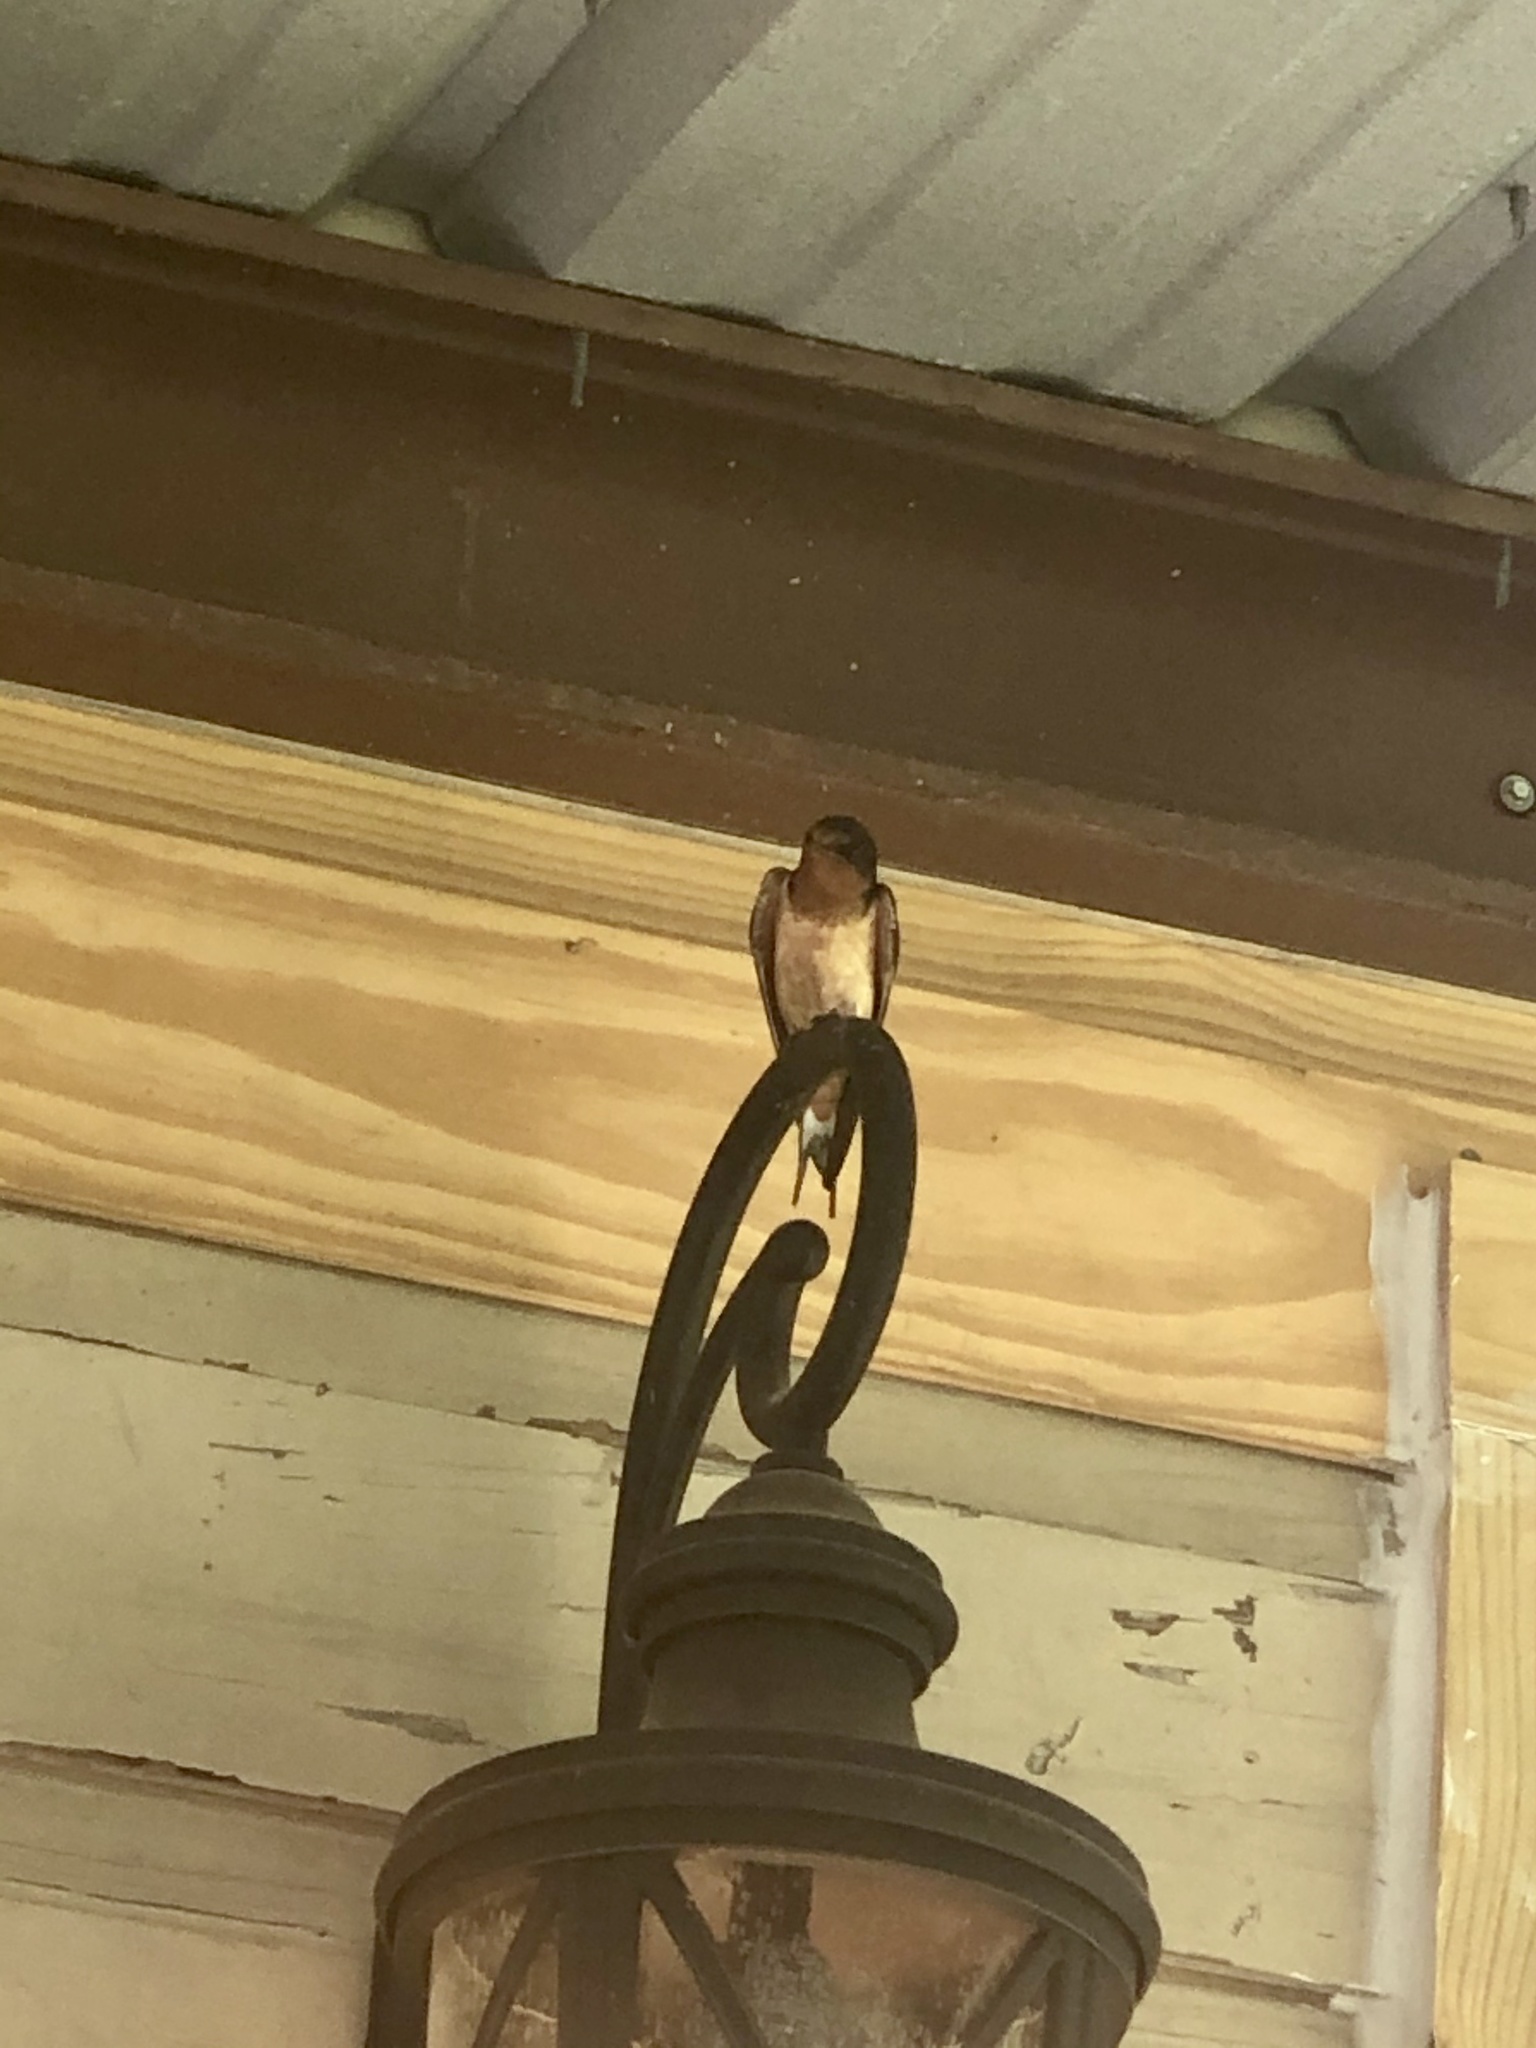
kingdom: Animalia
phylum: Chordata
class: Aves
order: Passeriformes
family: Hirundinidae
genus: Hirundo
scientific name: Hirundo rustica
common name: Barn swallow
